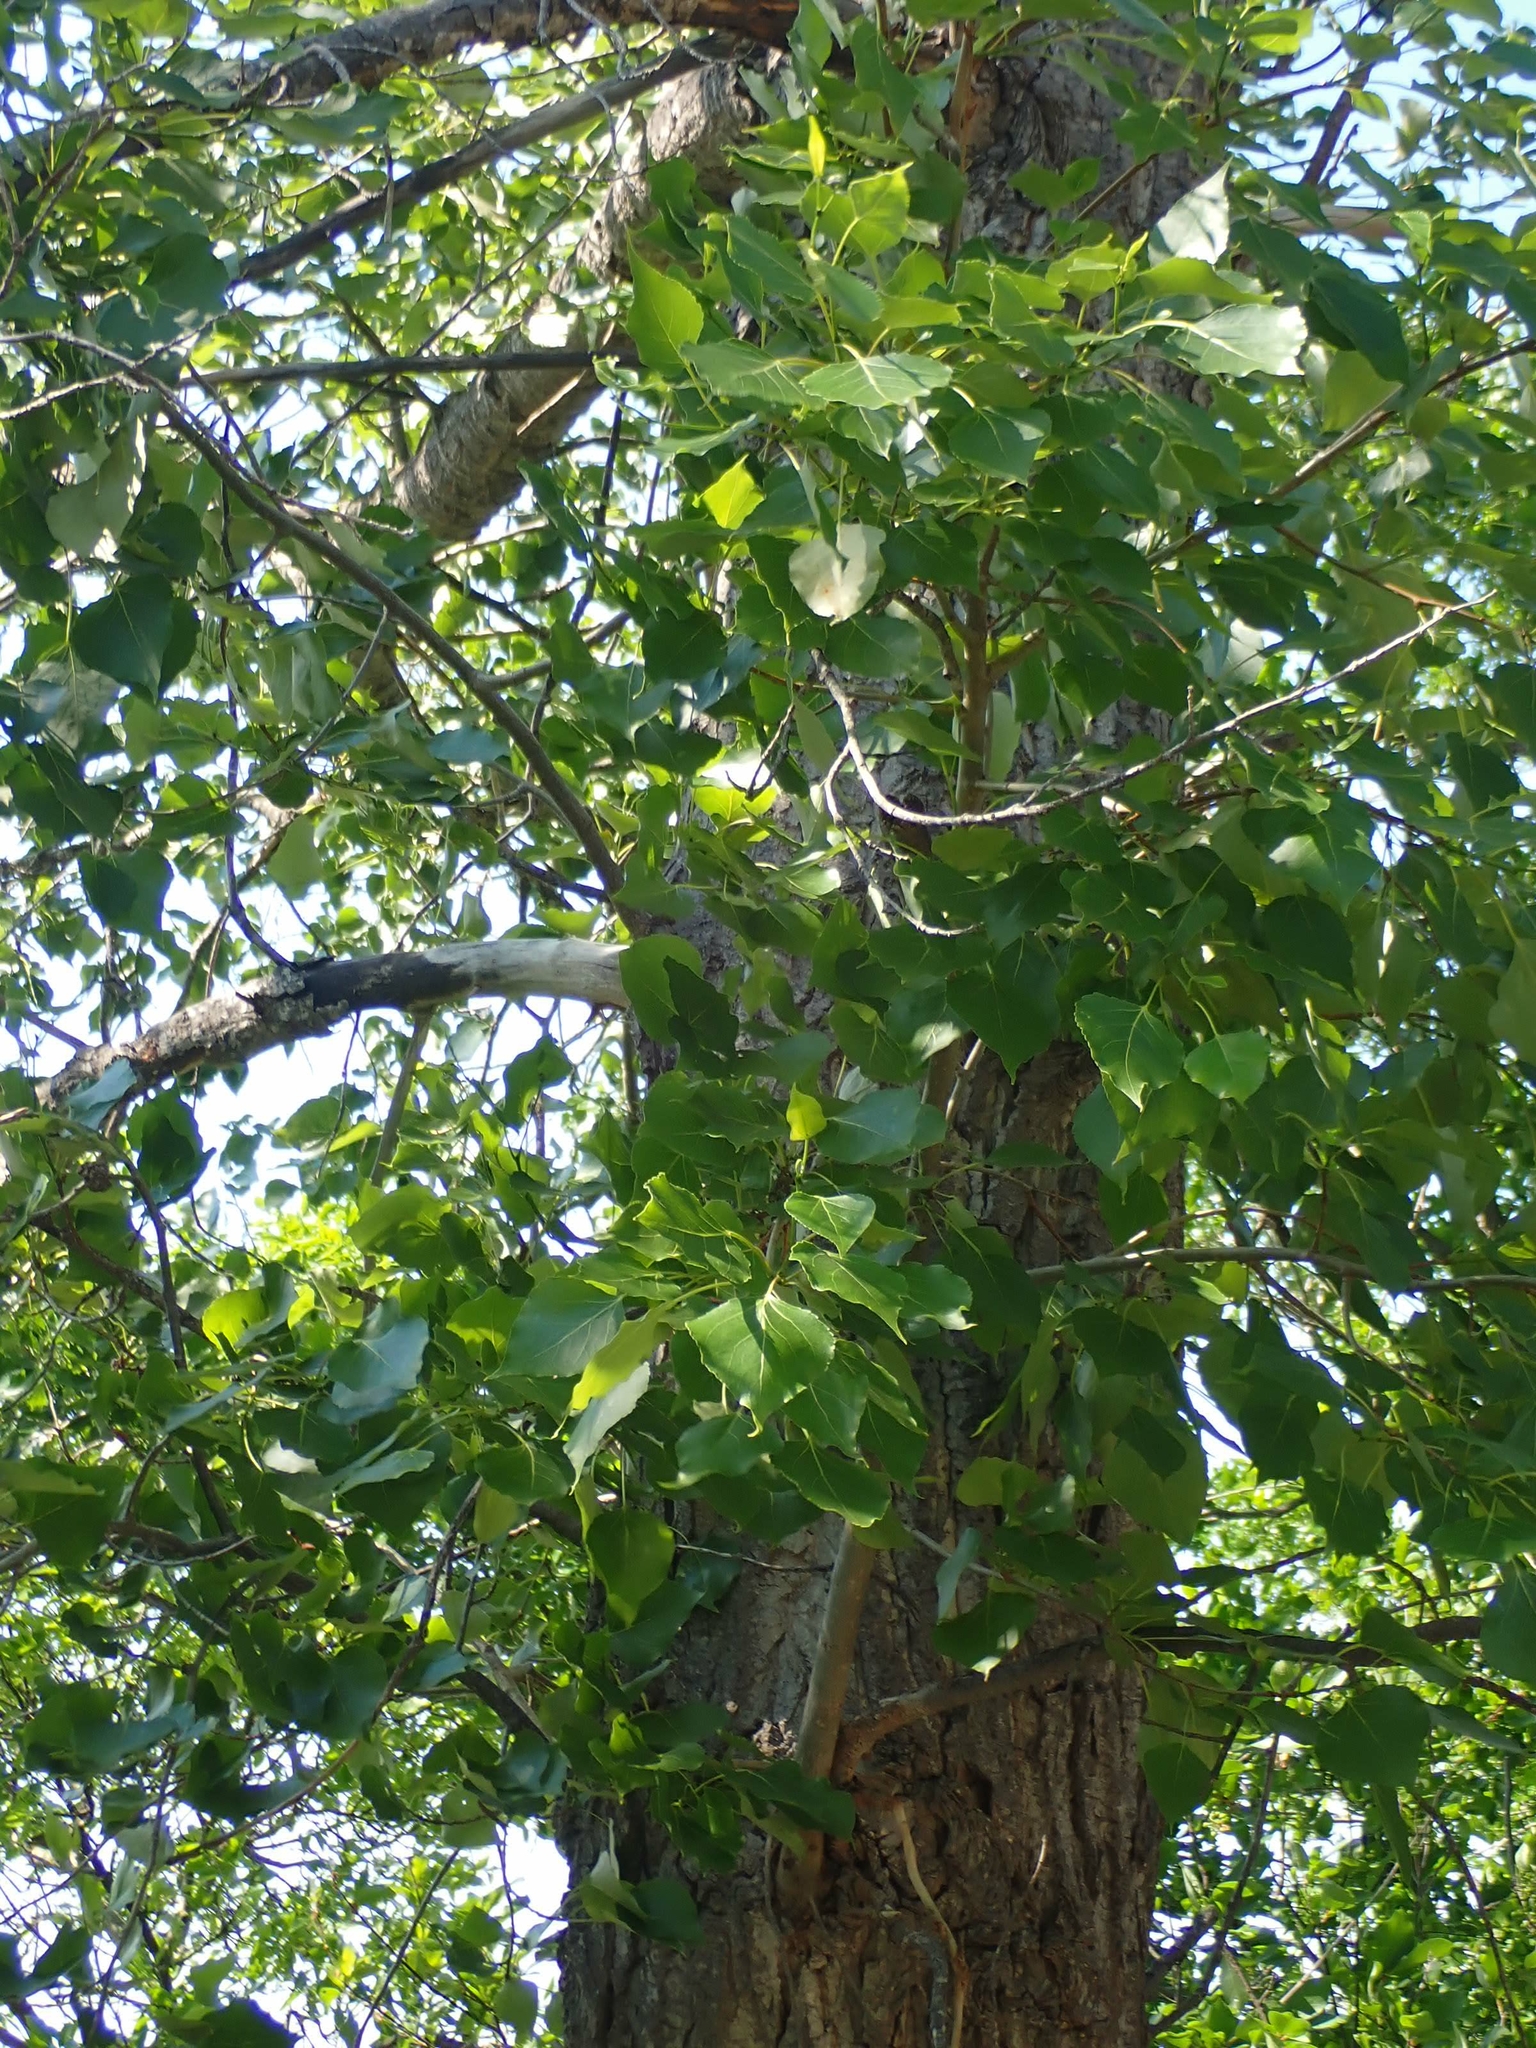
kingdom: Plantae
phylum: Tracheophyta
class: Magnoliopsida
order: Malpighiales
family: Salicaceae
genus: Populus
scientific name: Populus deltoides
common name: Eastern cottonwood
